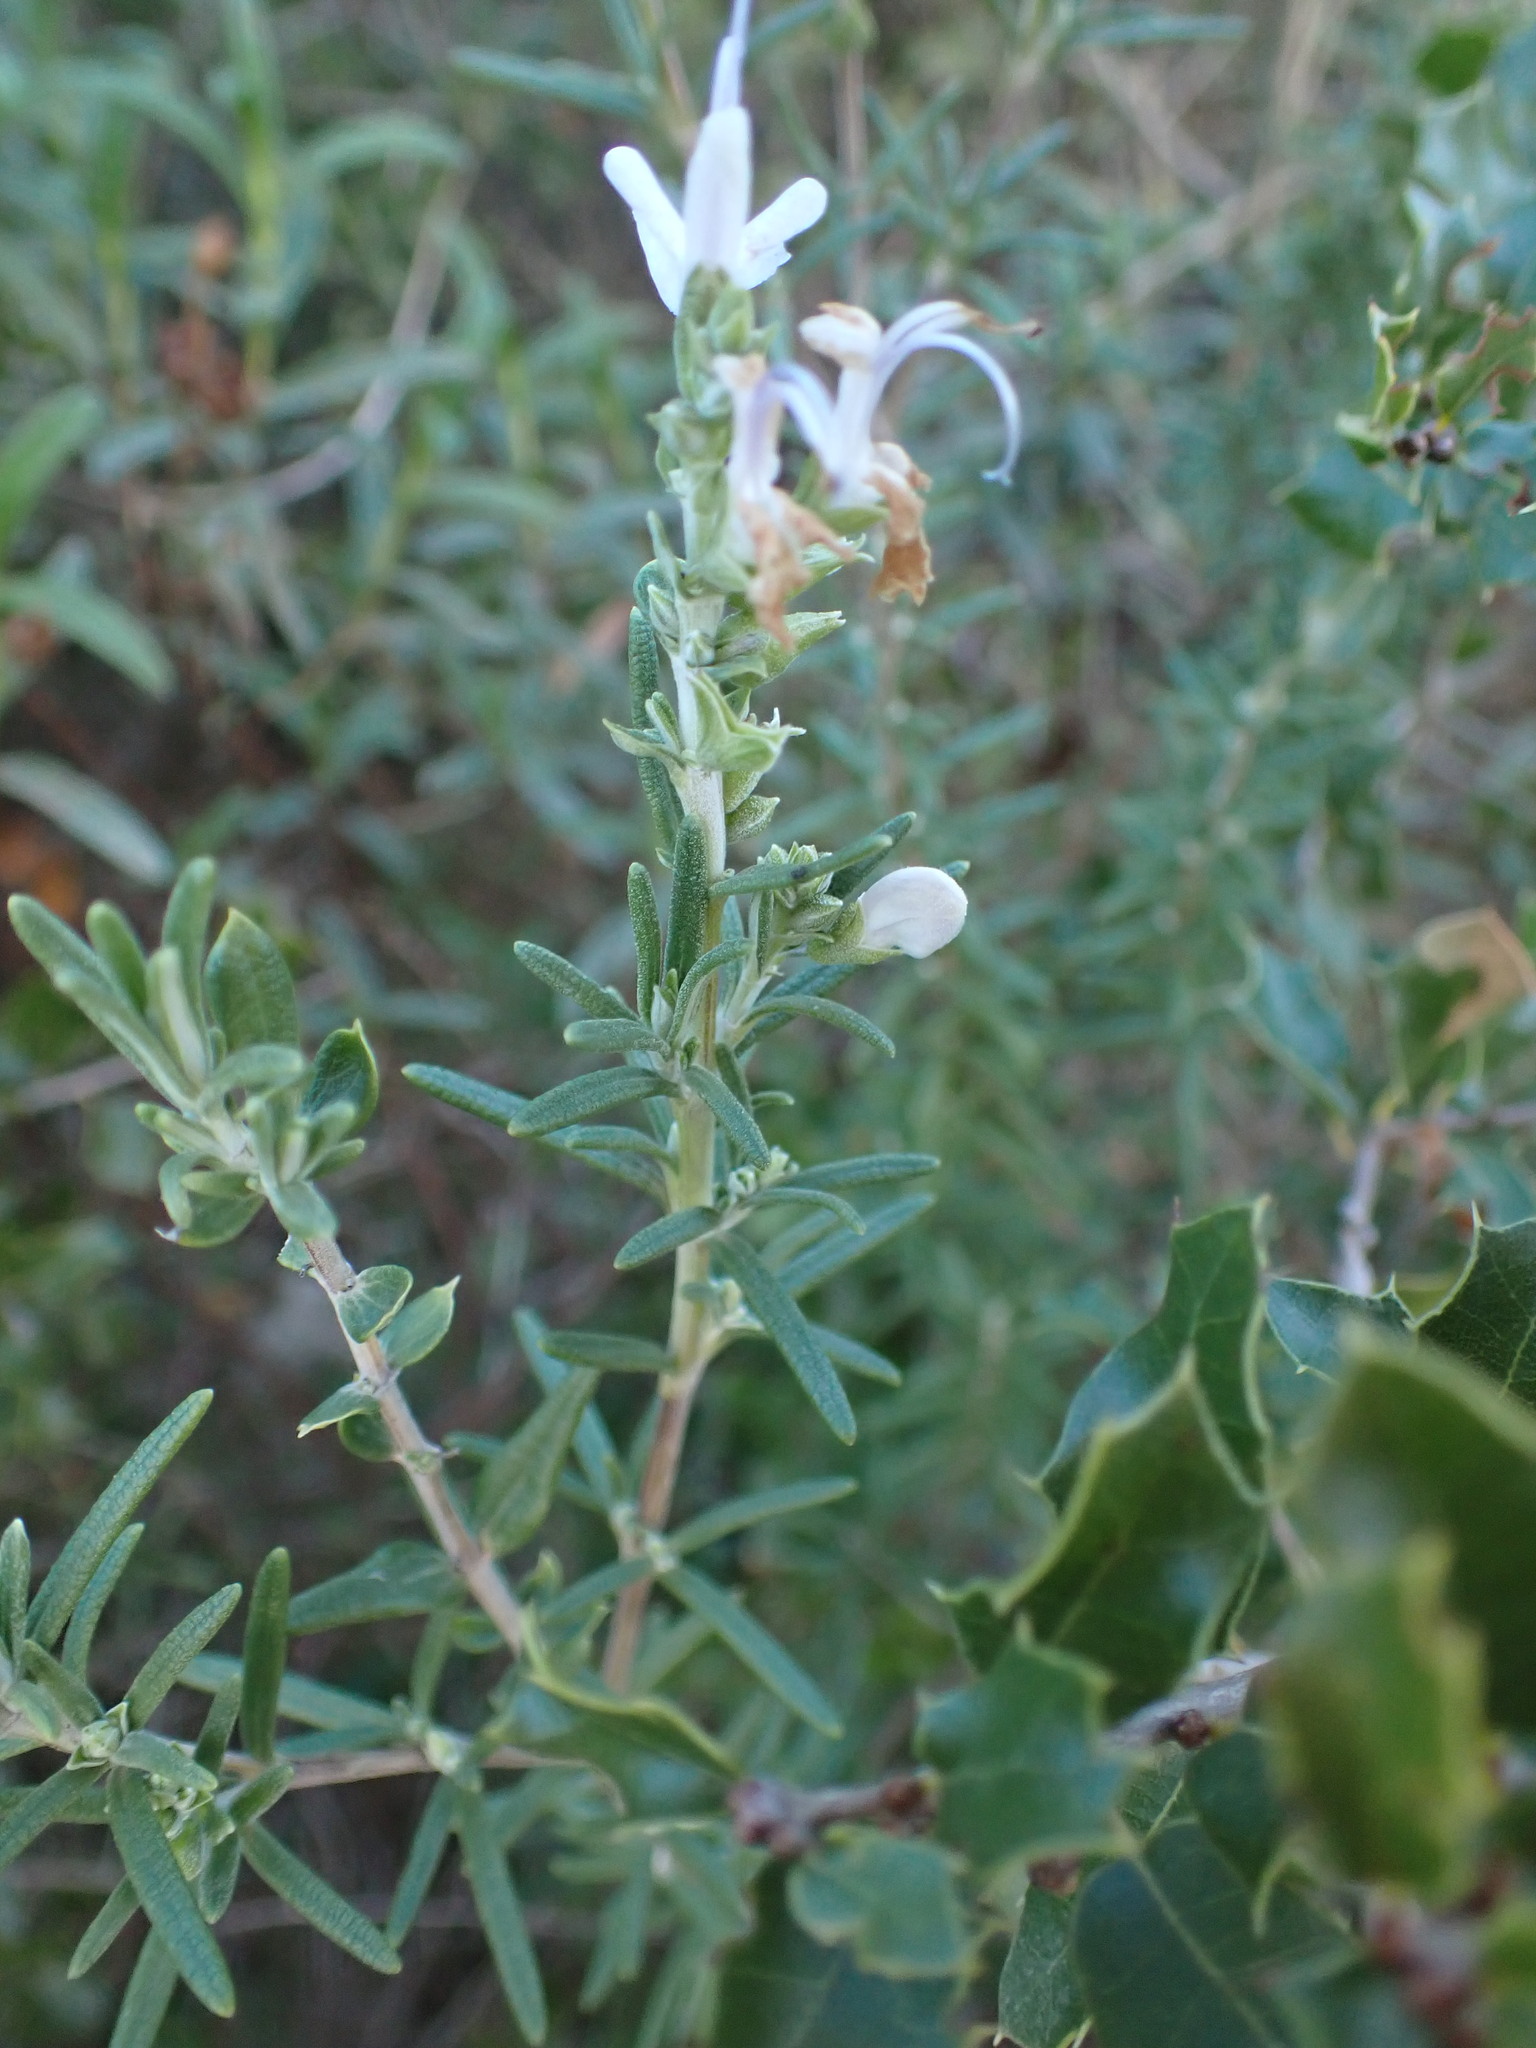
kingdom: Plantae
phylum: Tracheophyta
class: Magnoliopsida
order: Lamiales
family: Lamiaceae
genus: Salvia
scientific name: Salvia rosmarinus
